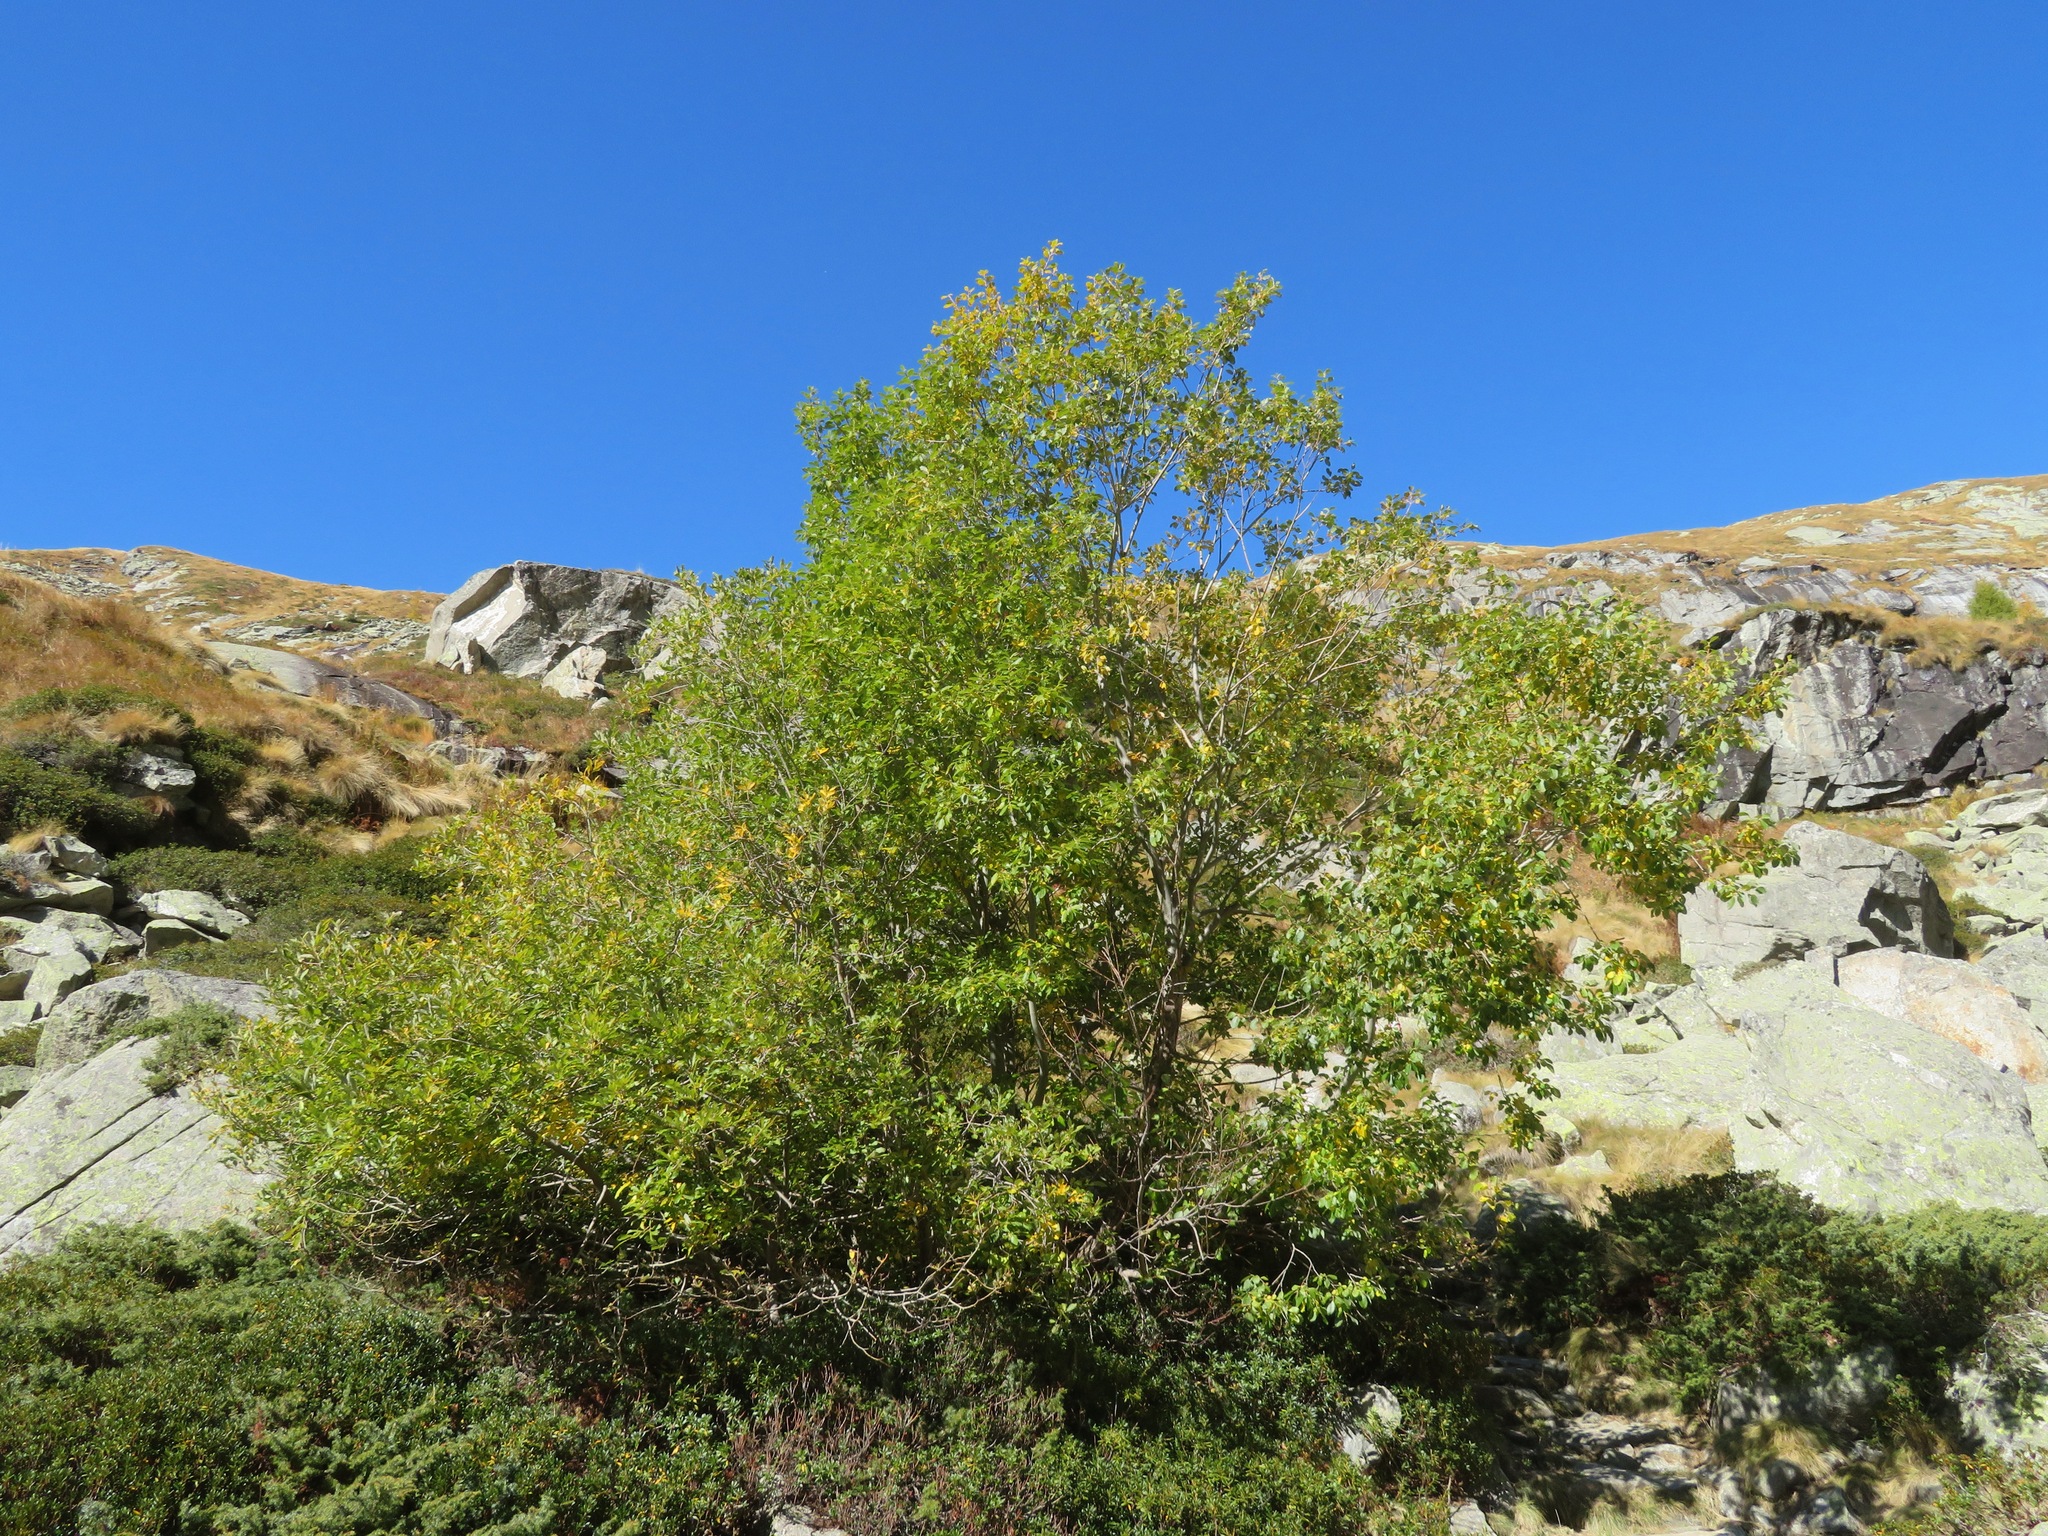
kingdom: Plantae
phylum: Tracheophyta
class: Magnoliopsida
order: Malpighiales
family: Salicaceae
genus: Salix
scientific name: Salix caprea
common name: Goat willow
